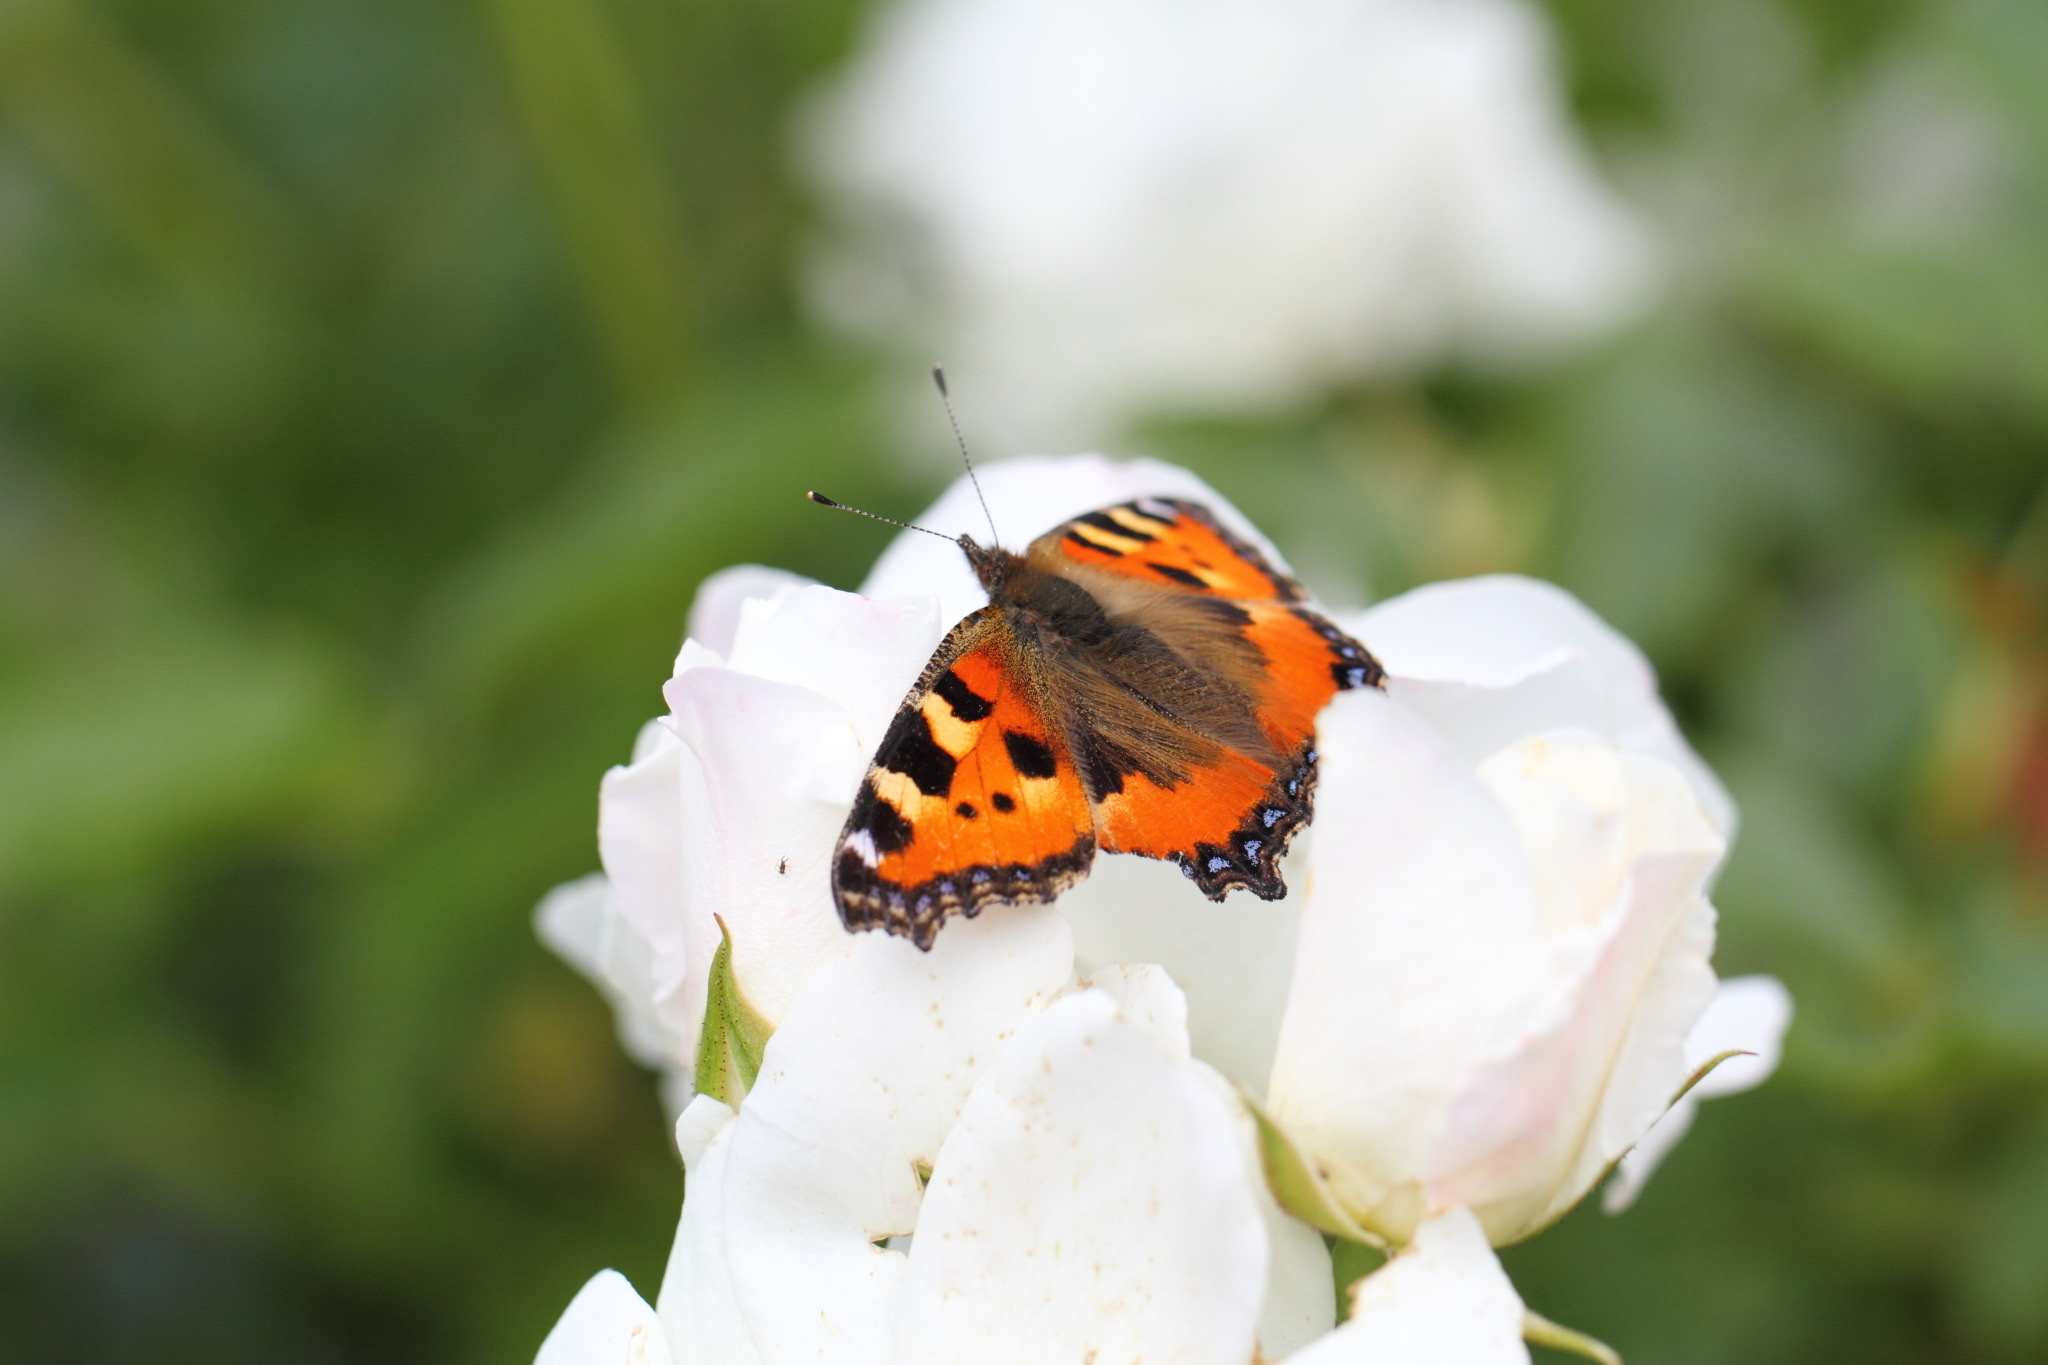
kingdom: Animalia
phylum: Arthropoda
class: Insecta
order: Lepidoptera
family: Nymphalidae
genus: Aglais
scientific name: Aglais urticae
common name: Small tortoiseshell
